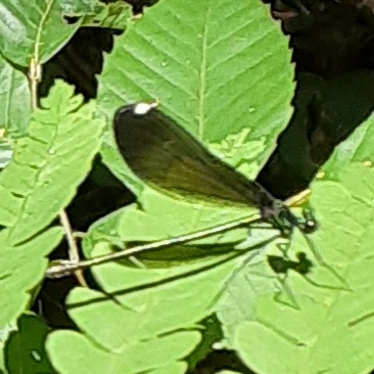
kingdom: Animalia
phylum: Arthropoda
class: Insecta
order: Odonata
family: Calopterygidae
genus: Calopteryx
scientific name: Calopteryx maculata
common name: Ebony jewelwing
